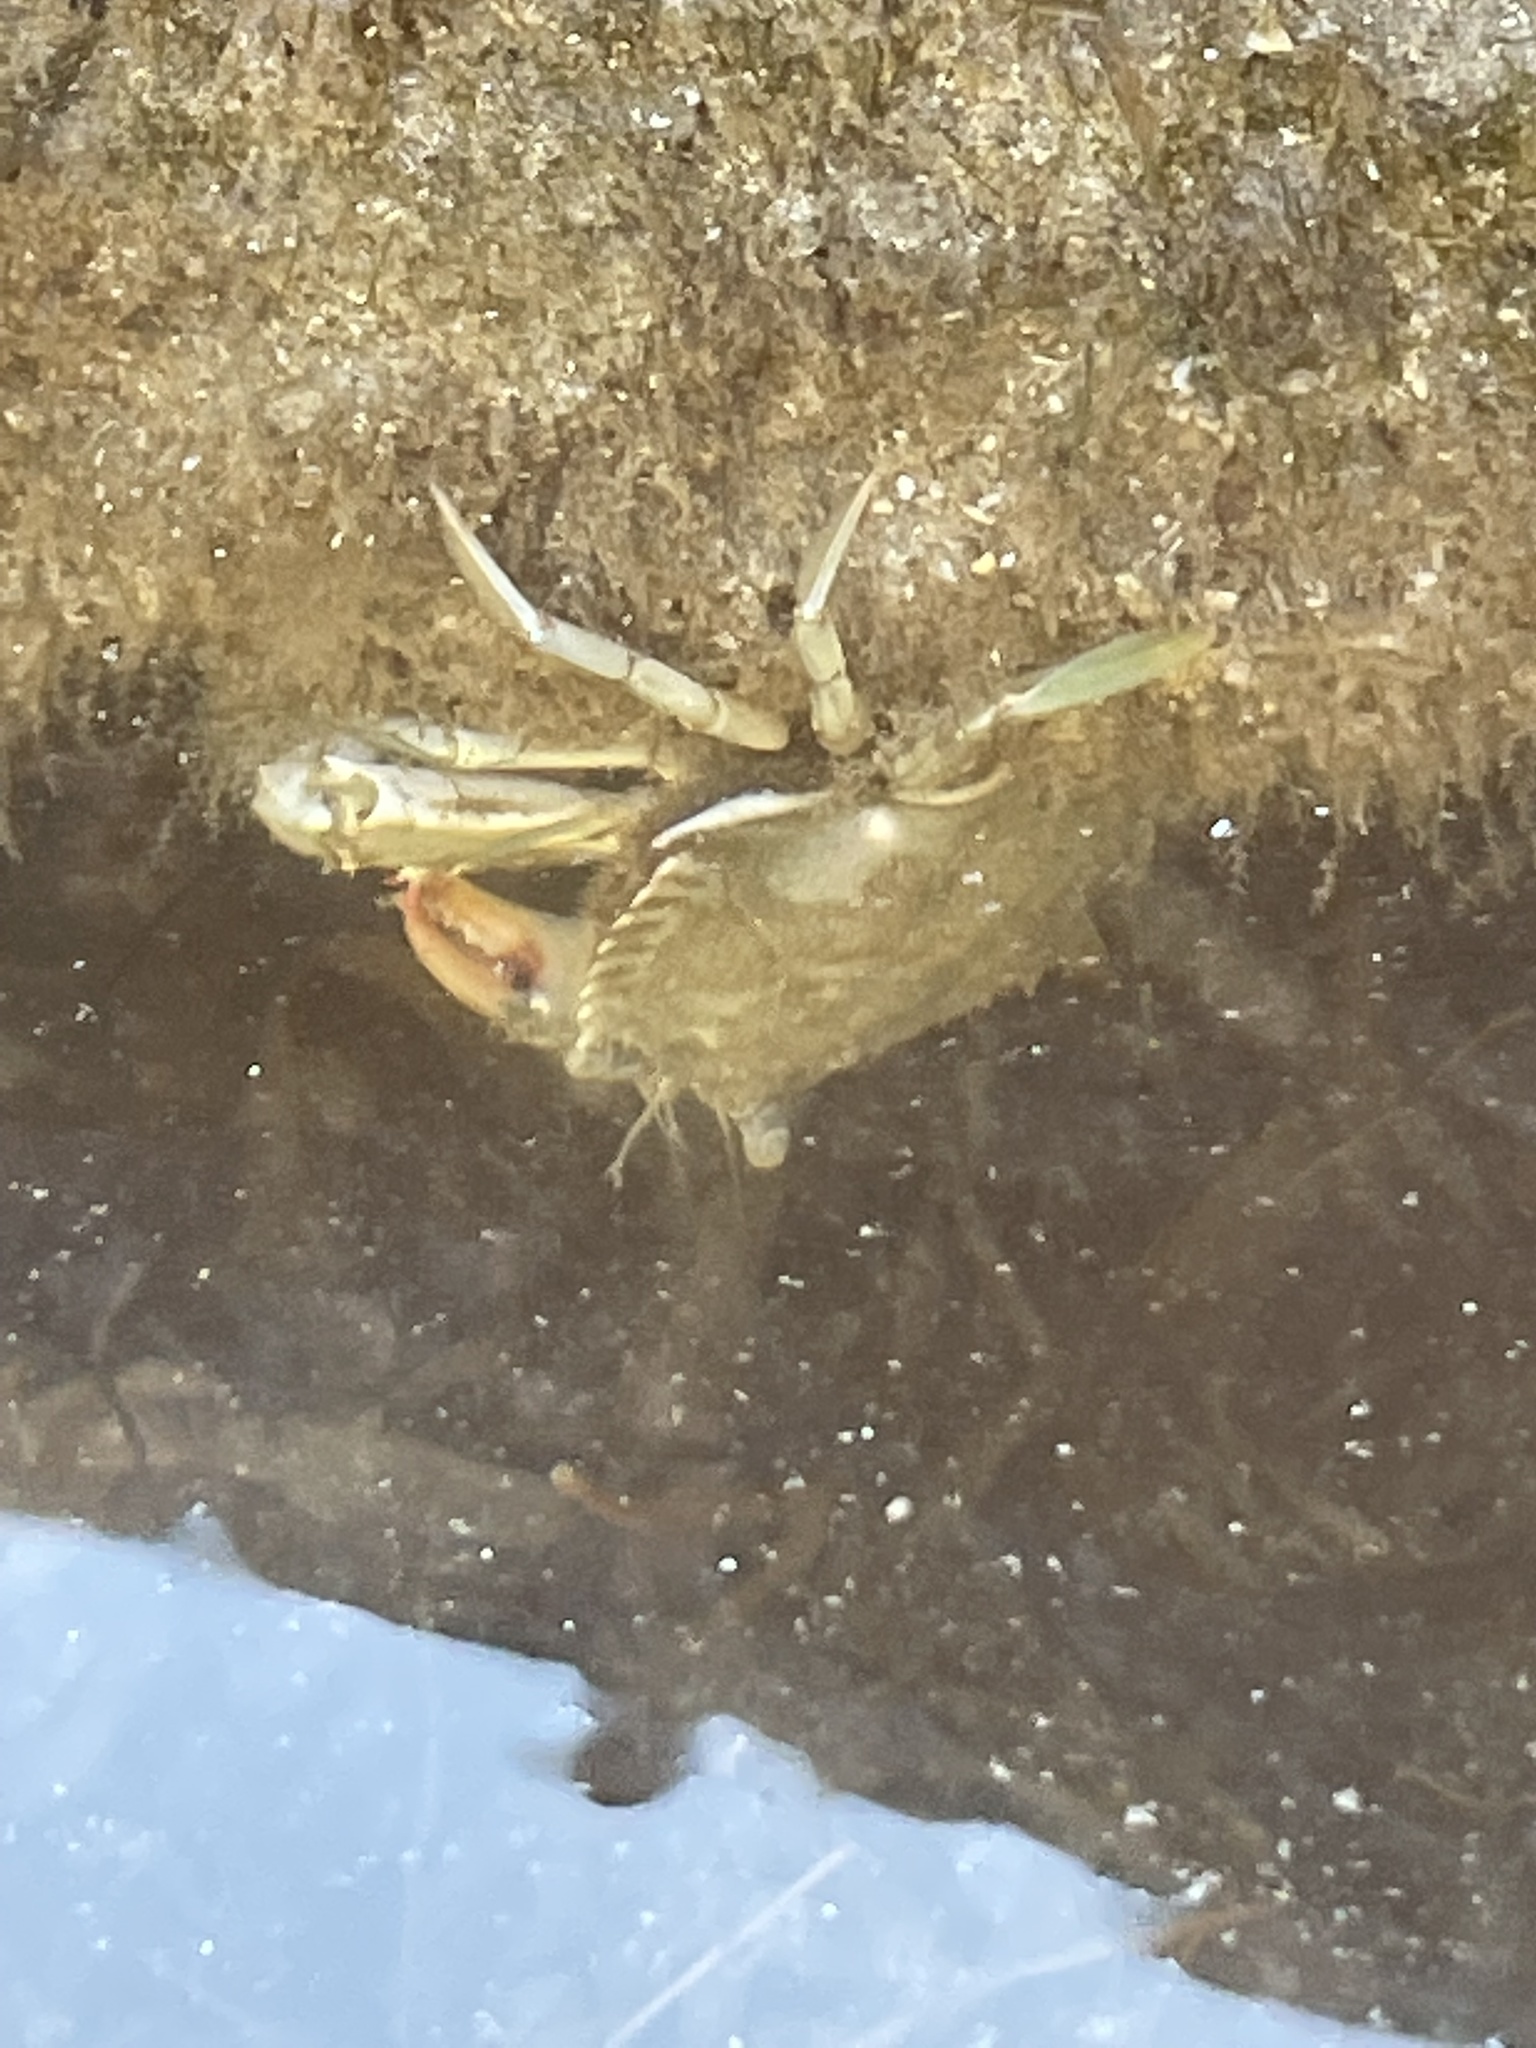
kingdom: Animalia
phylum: Arthropoda
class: Malacostraca
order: Decapoda
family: Portunidae
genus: Callinectes
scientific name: Callinectes sapidus
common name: Blue crab
